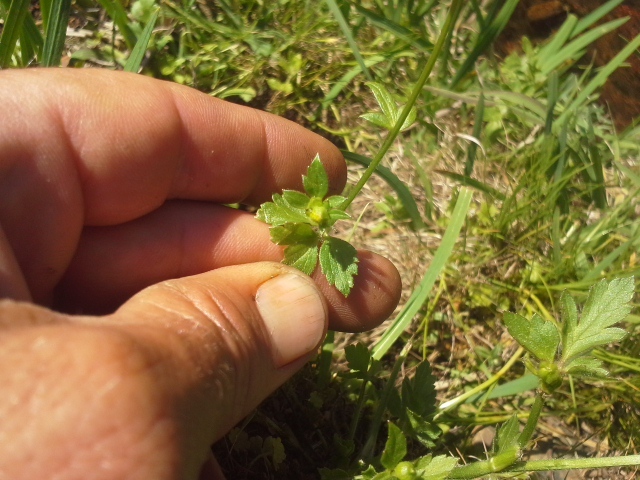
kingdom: Plantae
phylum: Tracheophyta
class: Magnoliopsida
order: Ranunculales
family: Ranunculaceae
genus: Ranunculus
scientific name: Ranunculus multifidus
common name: Wild buttercup
